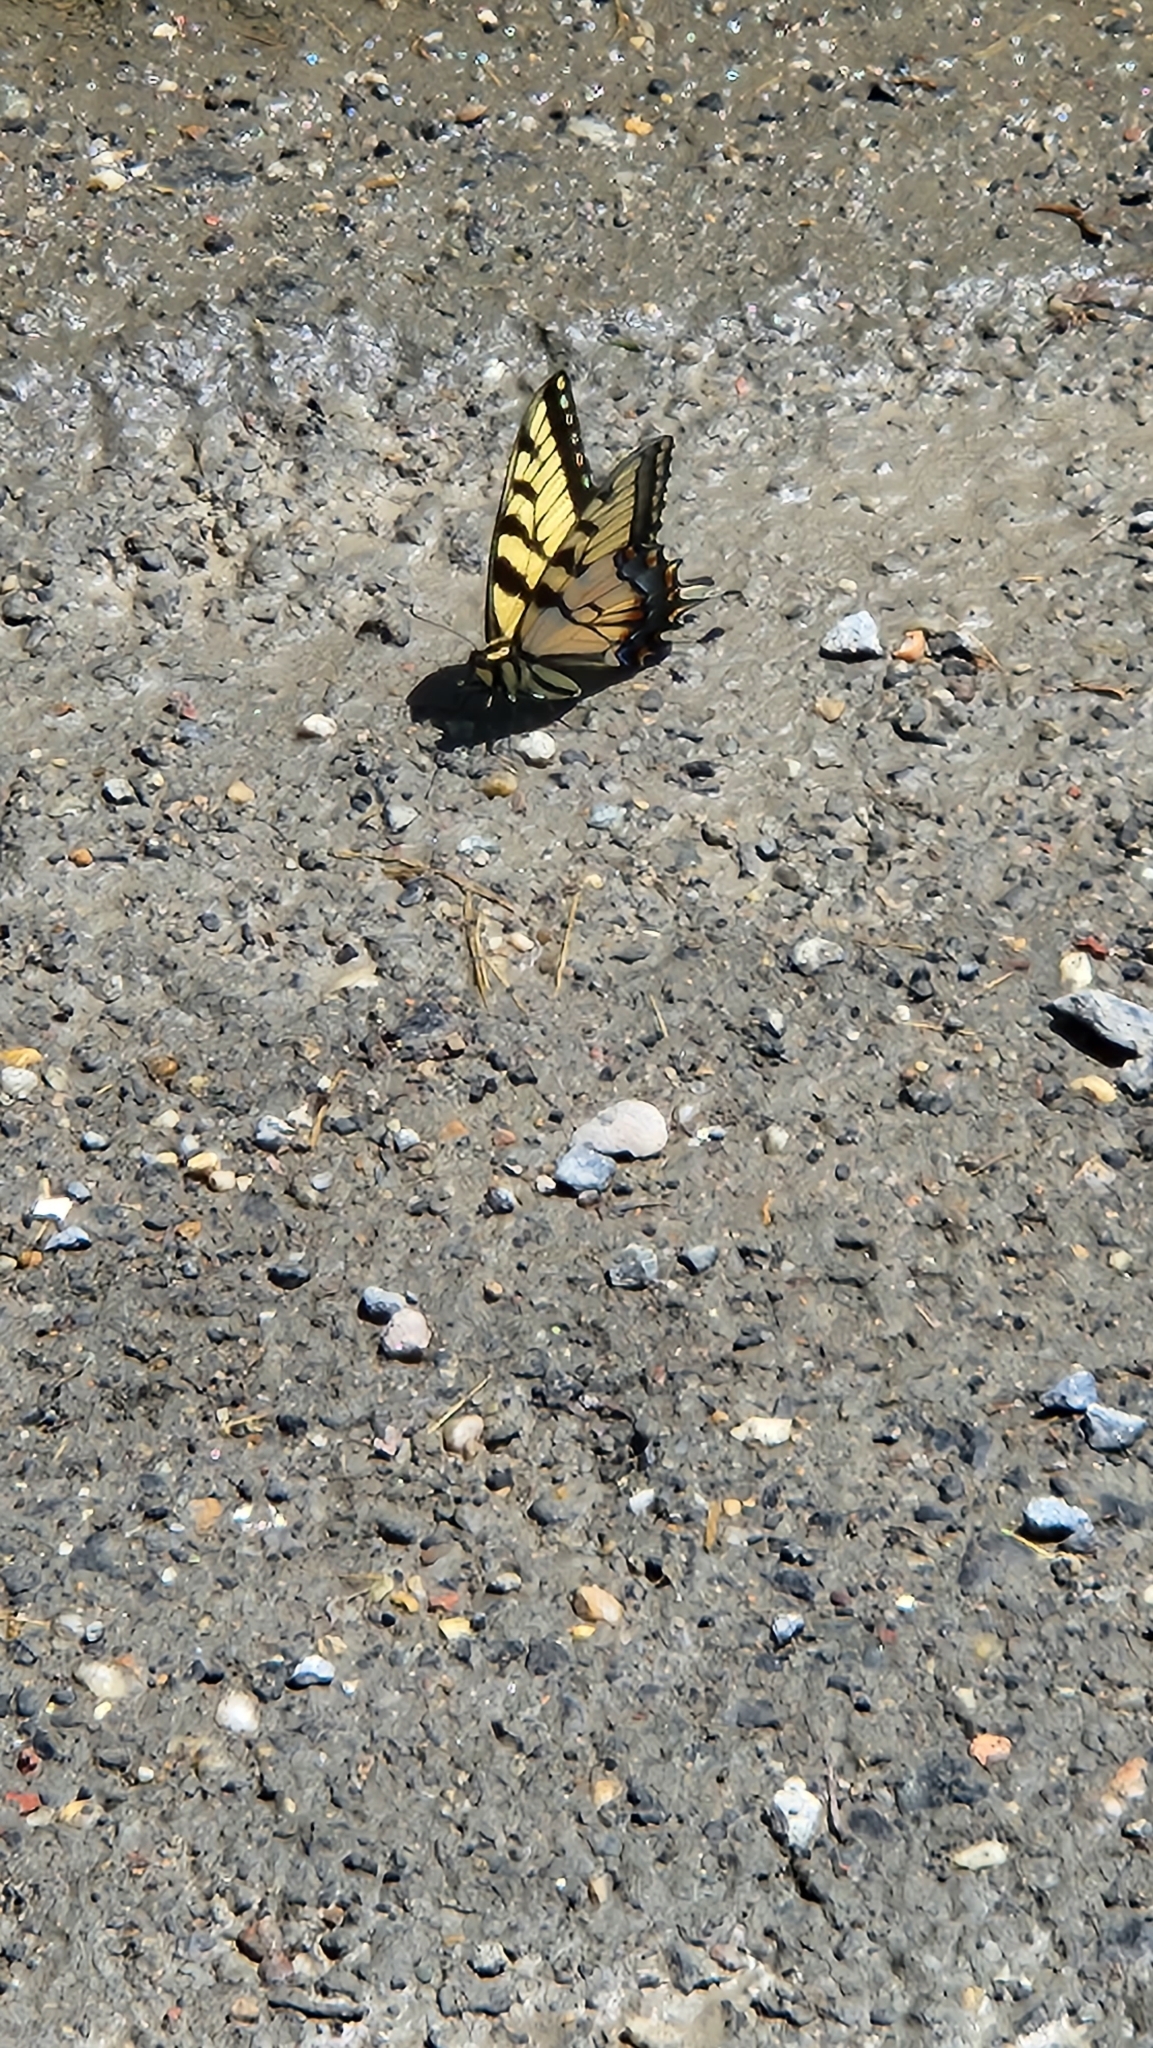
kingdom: Animalia
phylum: Arthropoda
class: Insecta
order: Lepidoptera
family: Papilionidae
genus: Papilio
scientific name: Papilio glaucus
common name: Tiger swallowtail
